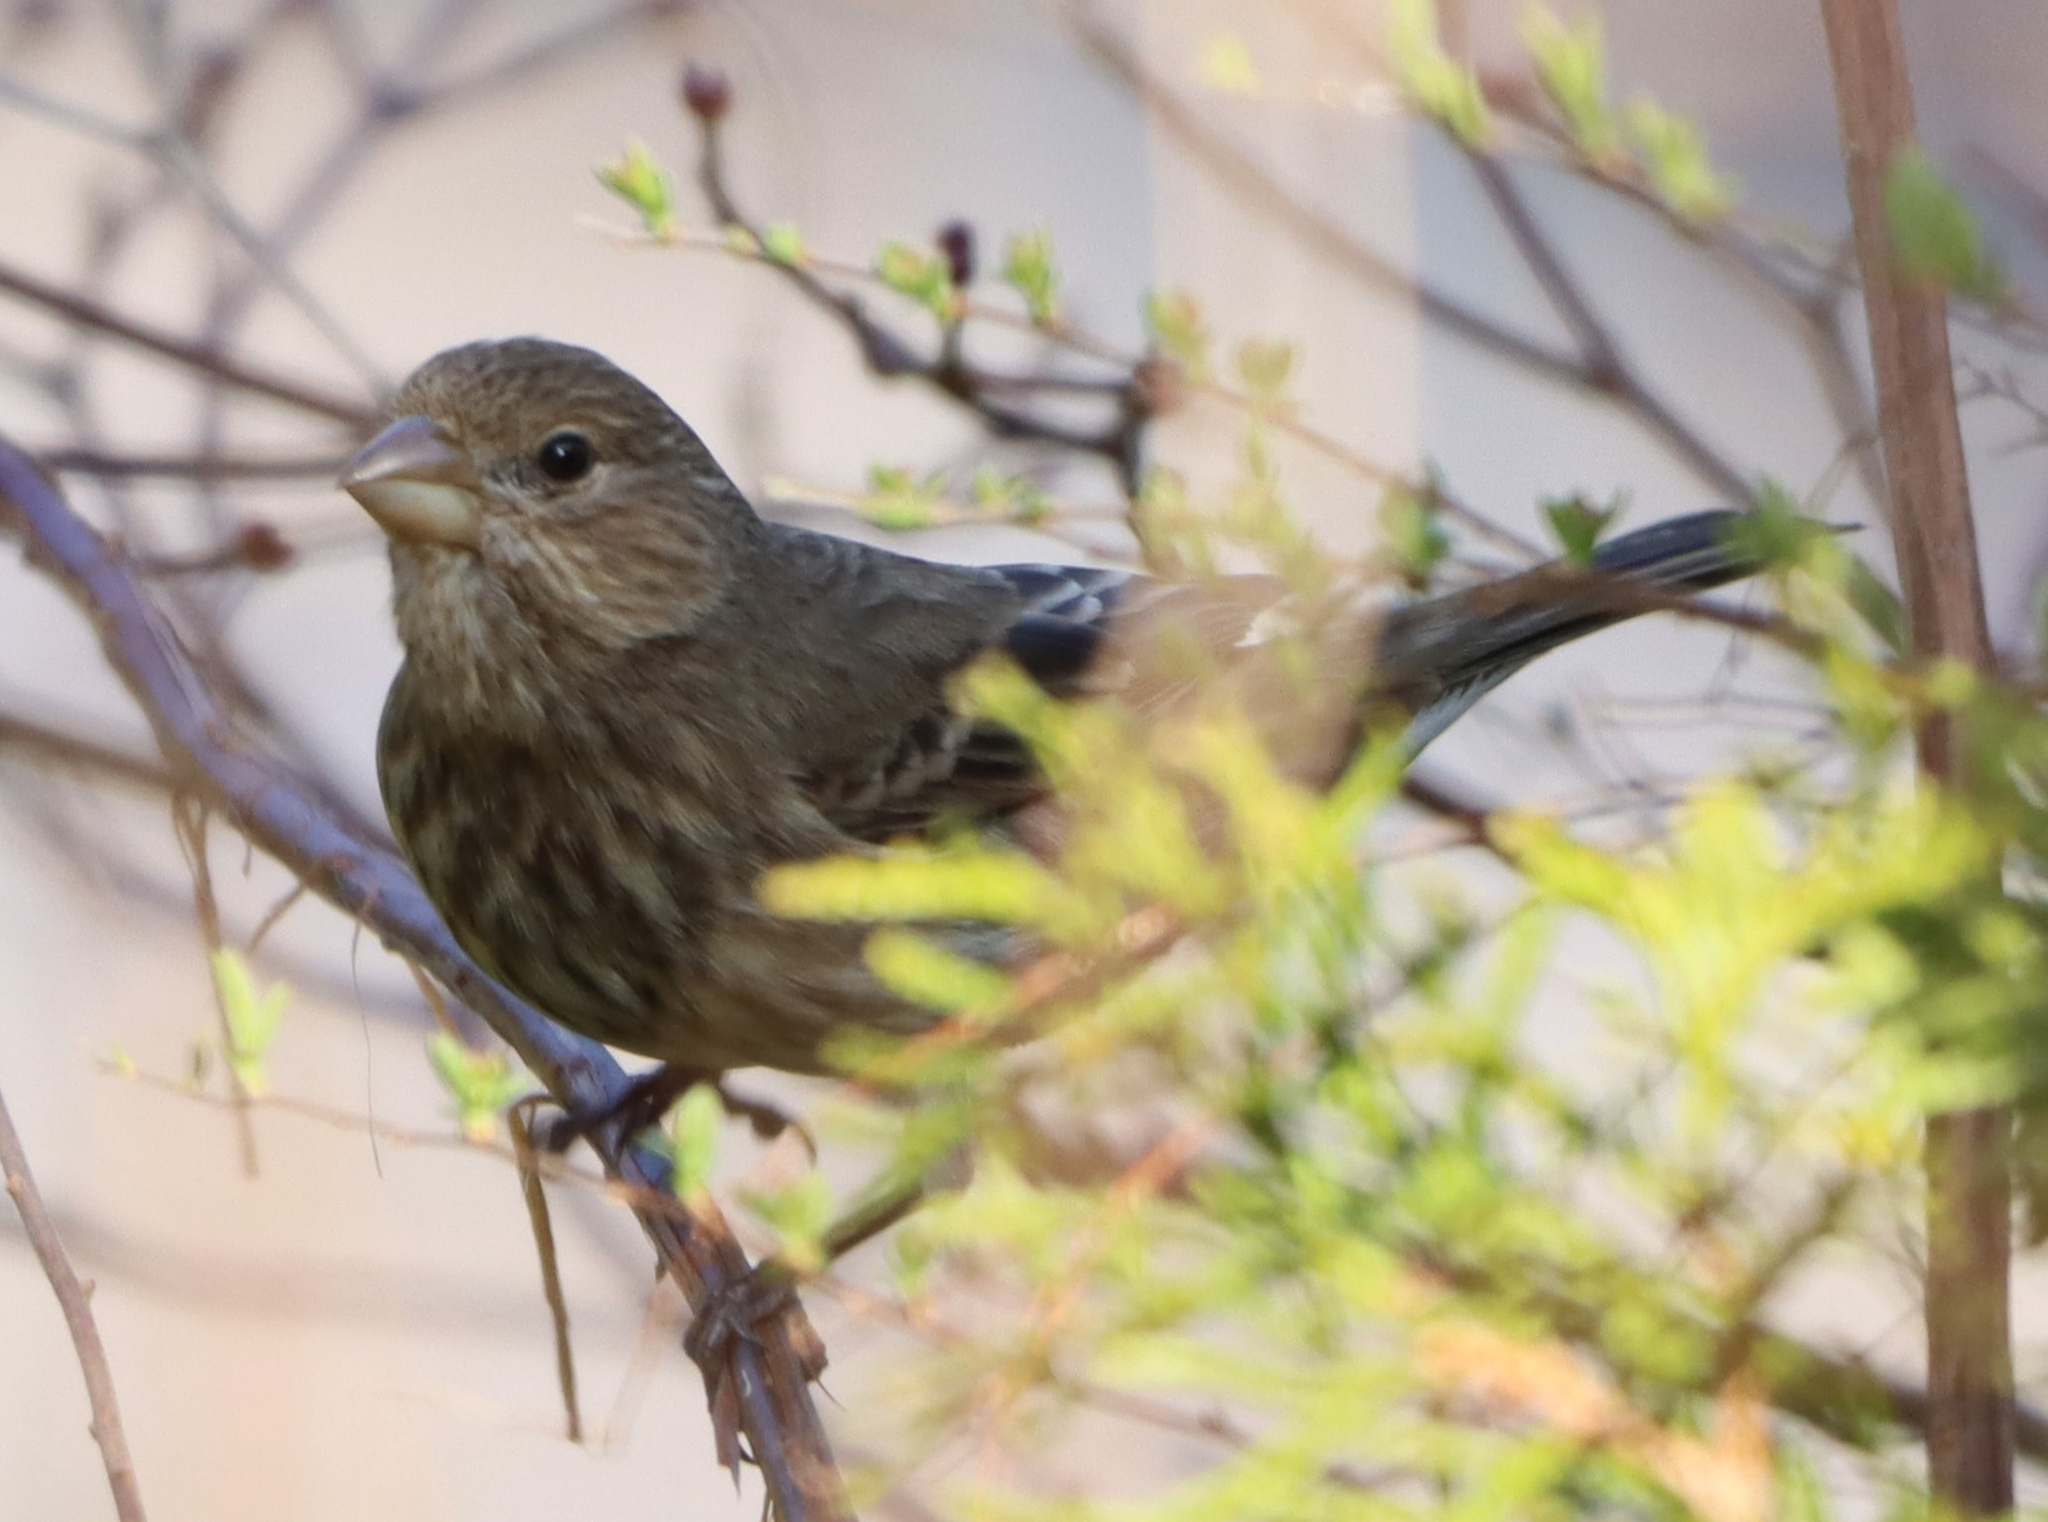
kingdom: Animalia
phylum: Chordata
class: Aves
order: Passeriformes
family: Fringillidae
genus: Haemorhous
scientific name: Haemorhous mexicanus
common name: House finch
